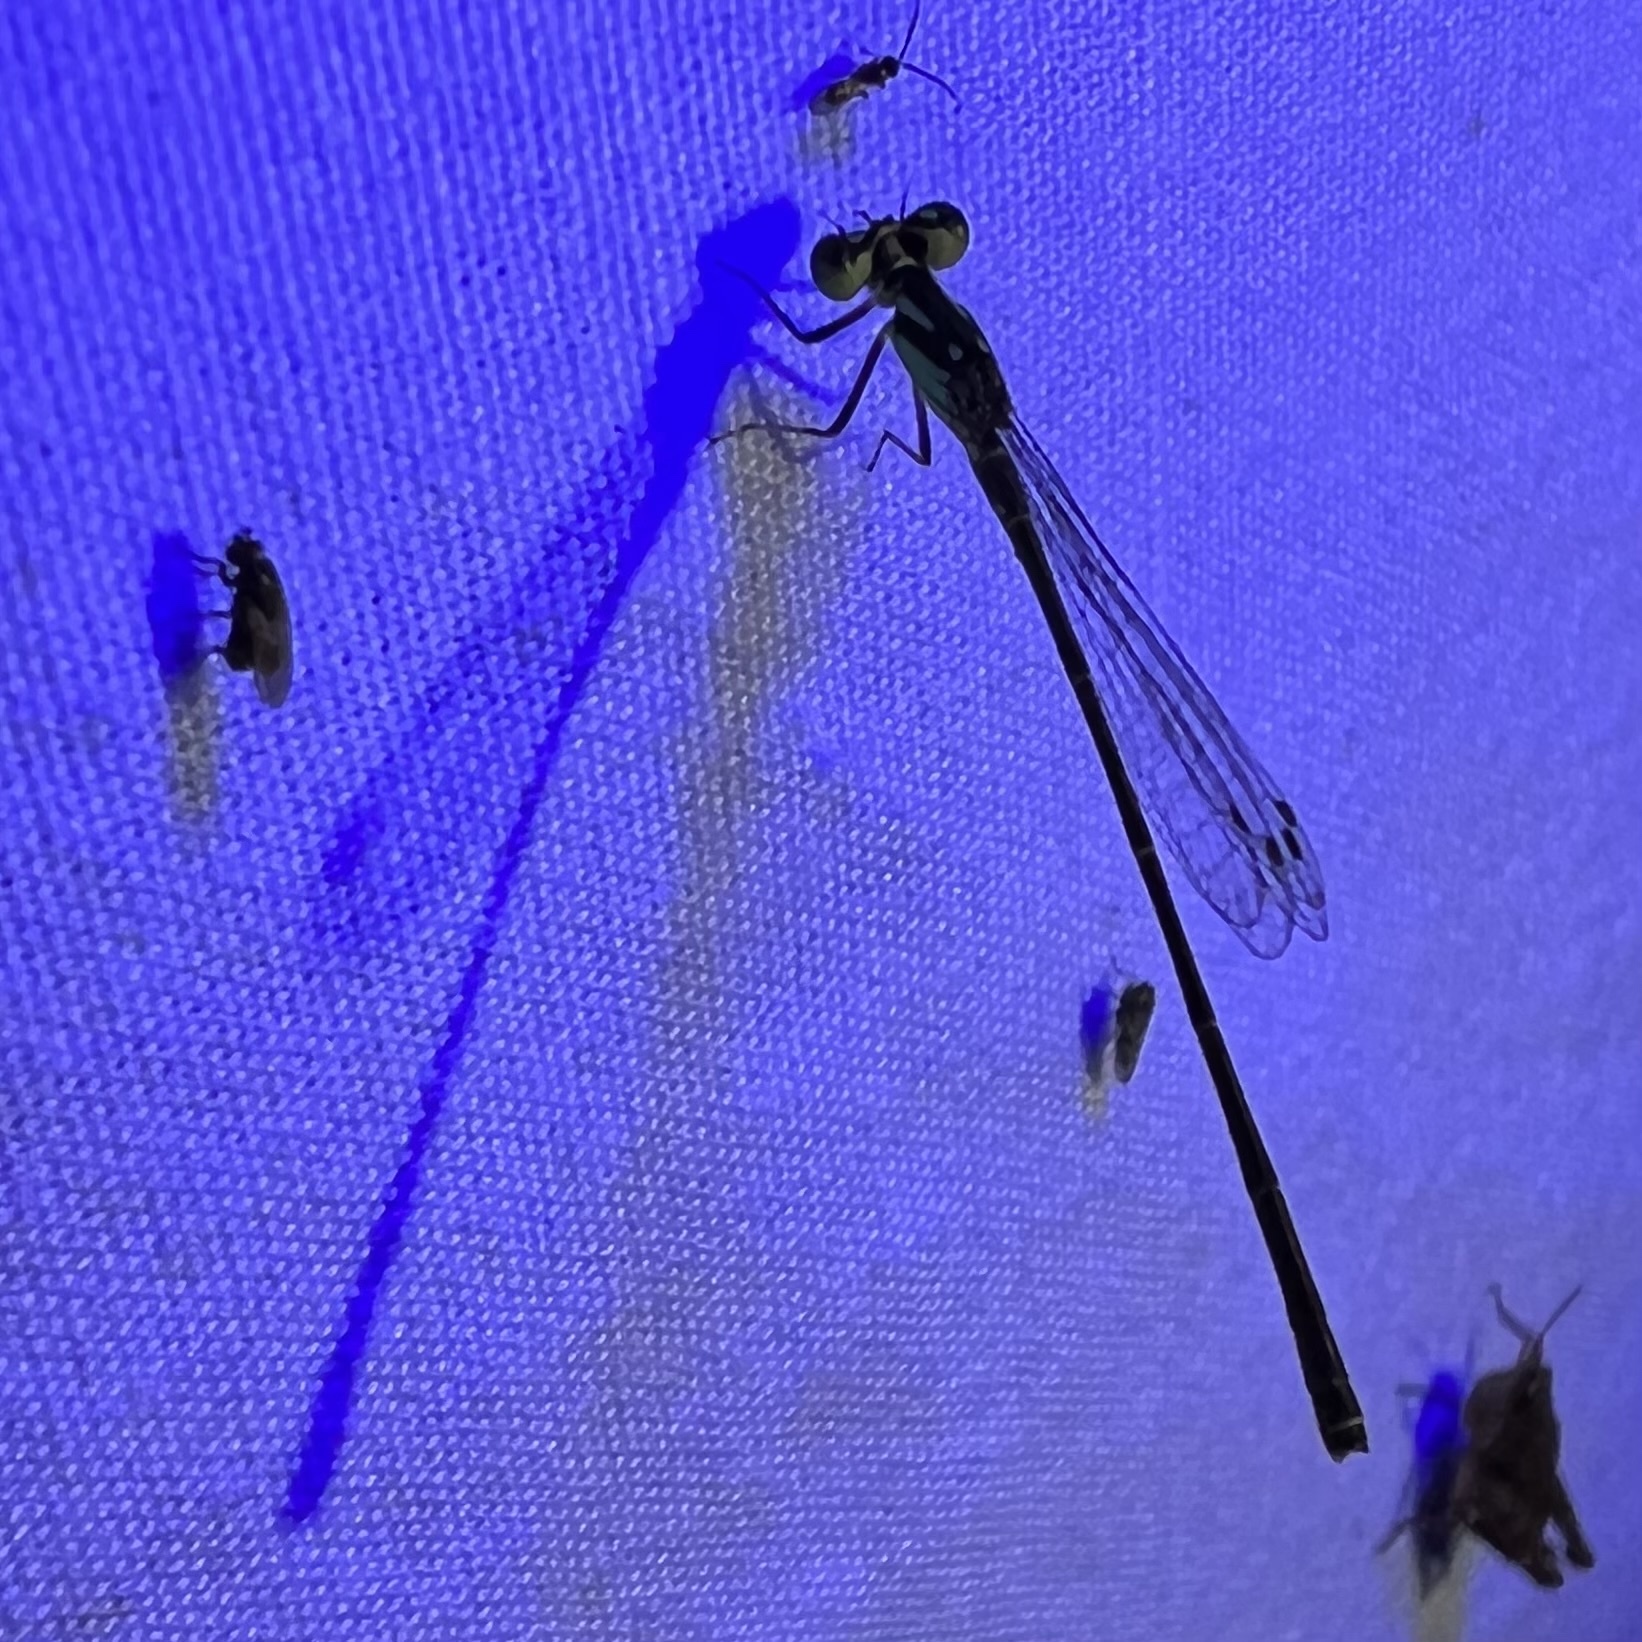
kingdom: Animalia
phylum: Arthropoda
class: Insecta
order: Odonata
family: Coenagrionidae
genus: Ischnura
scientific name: Ischnura posita
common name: Fragile forktail
